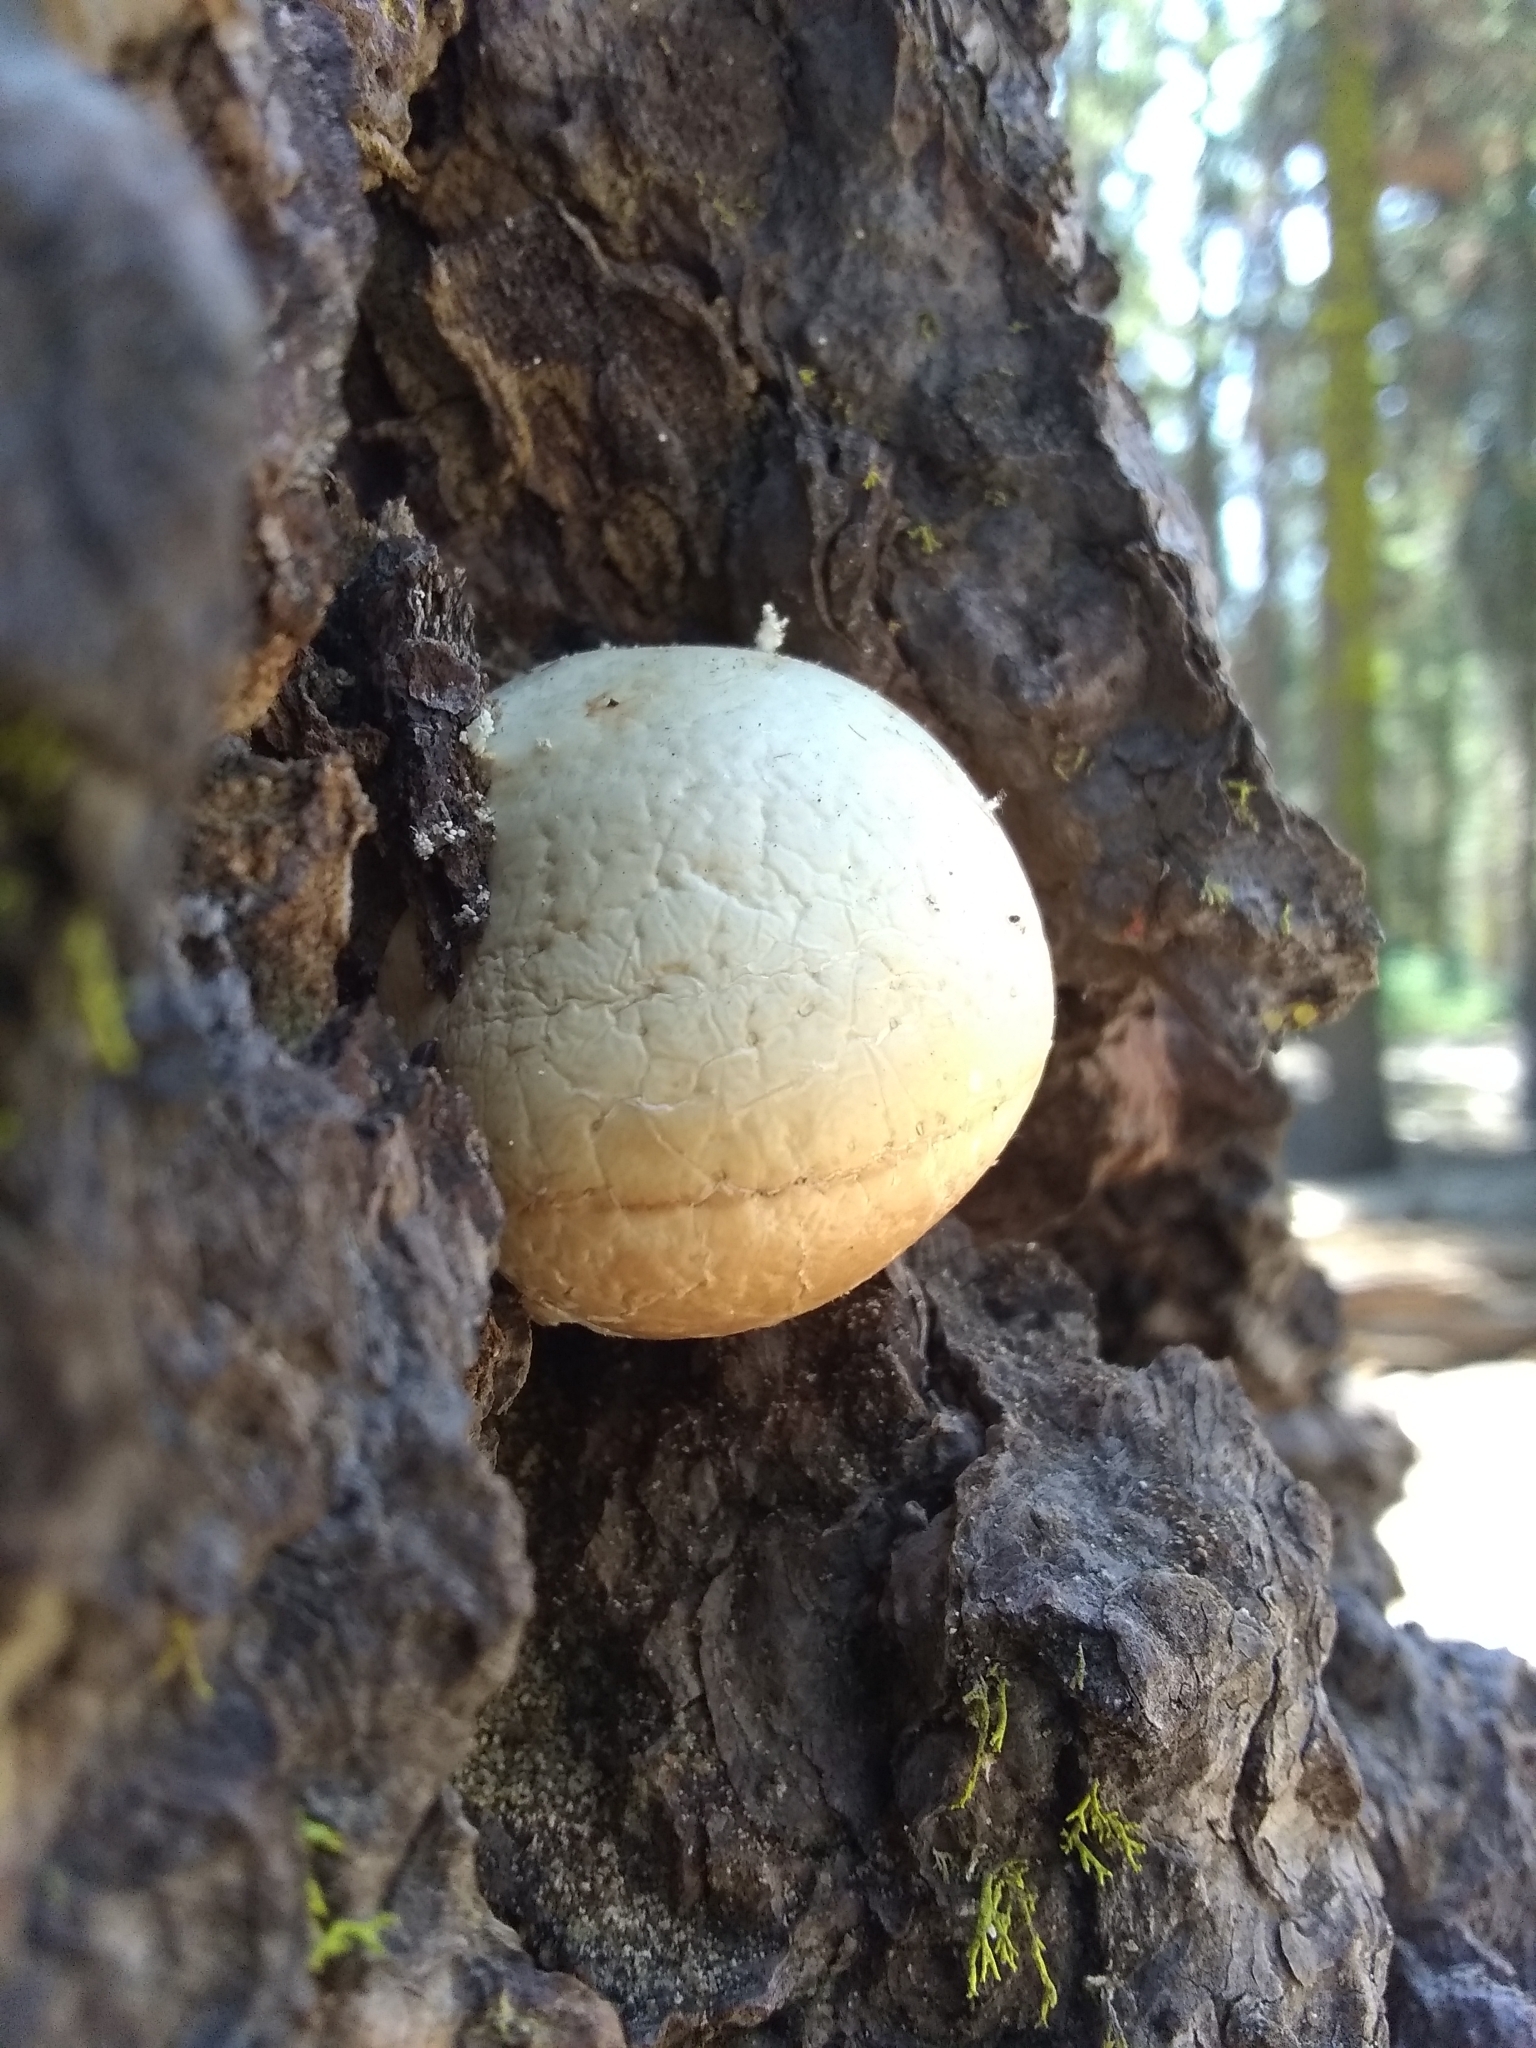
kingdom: Fungi
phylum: Basidiomycota
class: Agaricomycetes
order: Polyporales
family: Polyporaceae
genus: Cryptoporus
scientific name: Cryptoporus volvatus
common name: Veiled polypore
